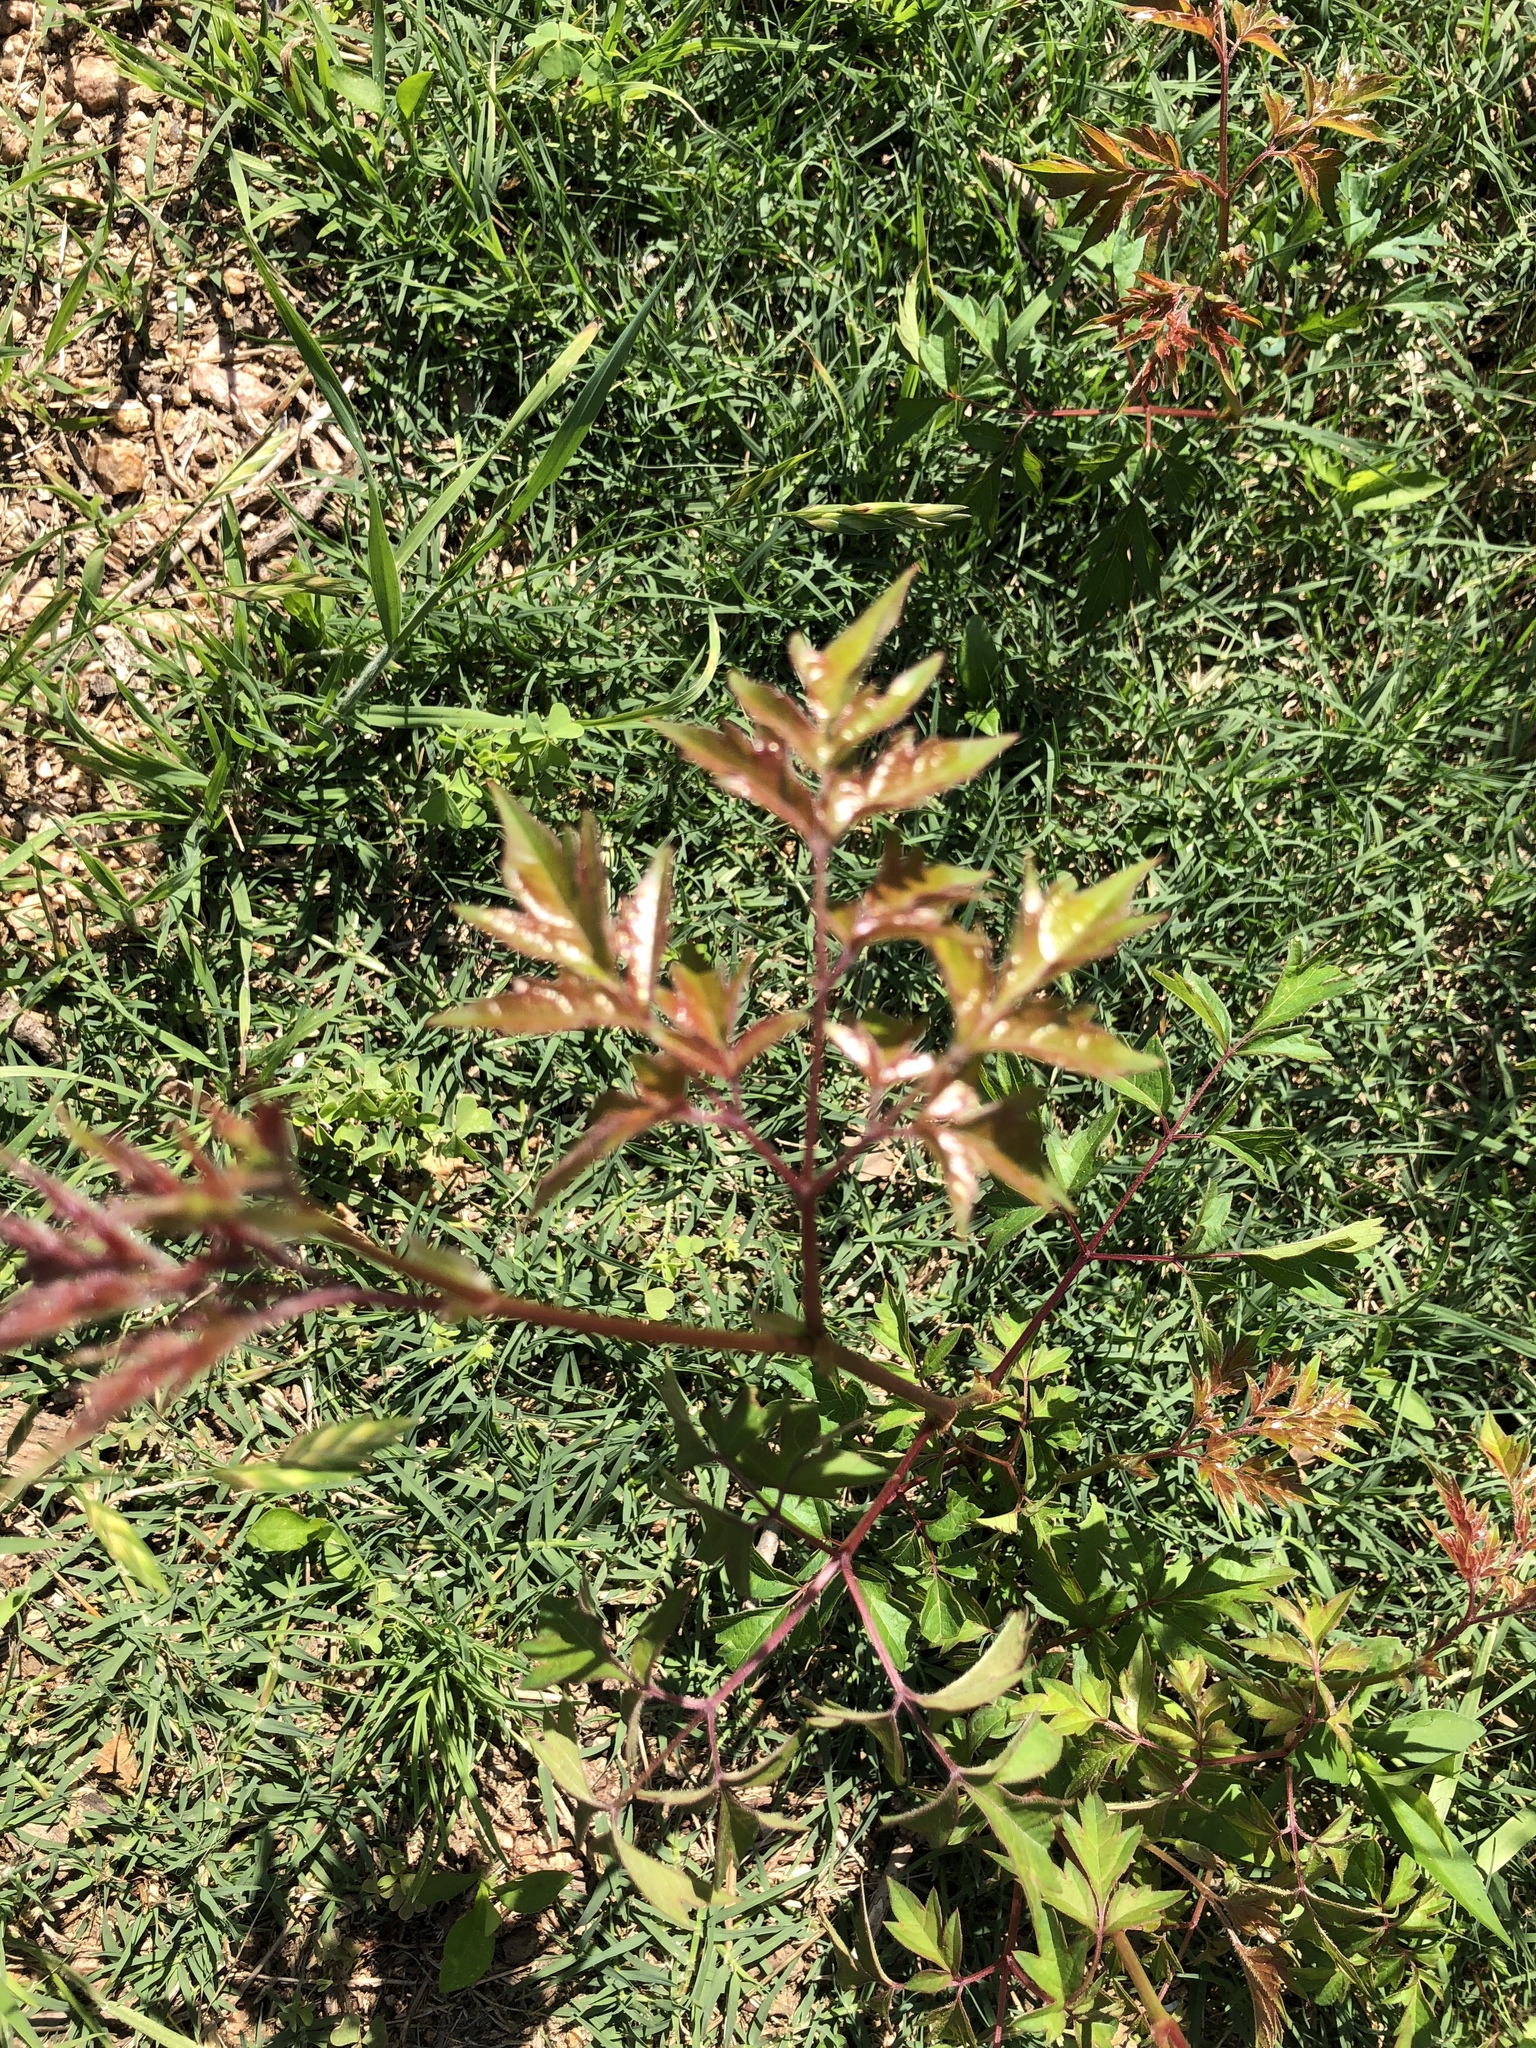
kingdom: Plantae
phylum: Tracheophyta
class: Magnoliopsida
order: Vitales
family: Vitaceae
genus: Nekemias
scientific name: Nekemias arborea
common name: Peppervine
